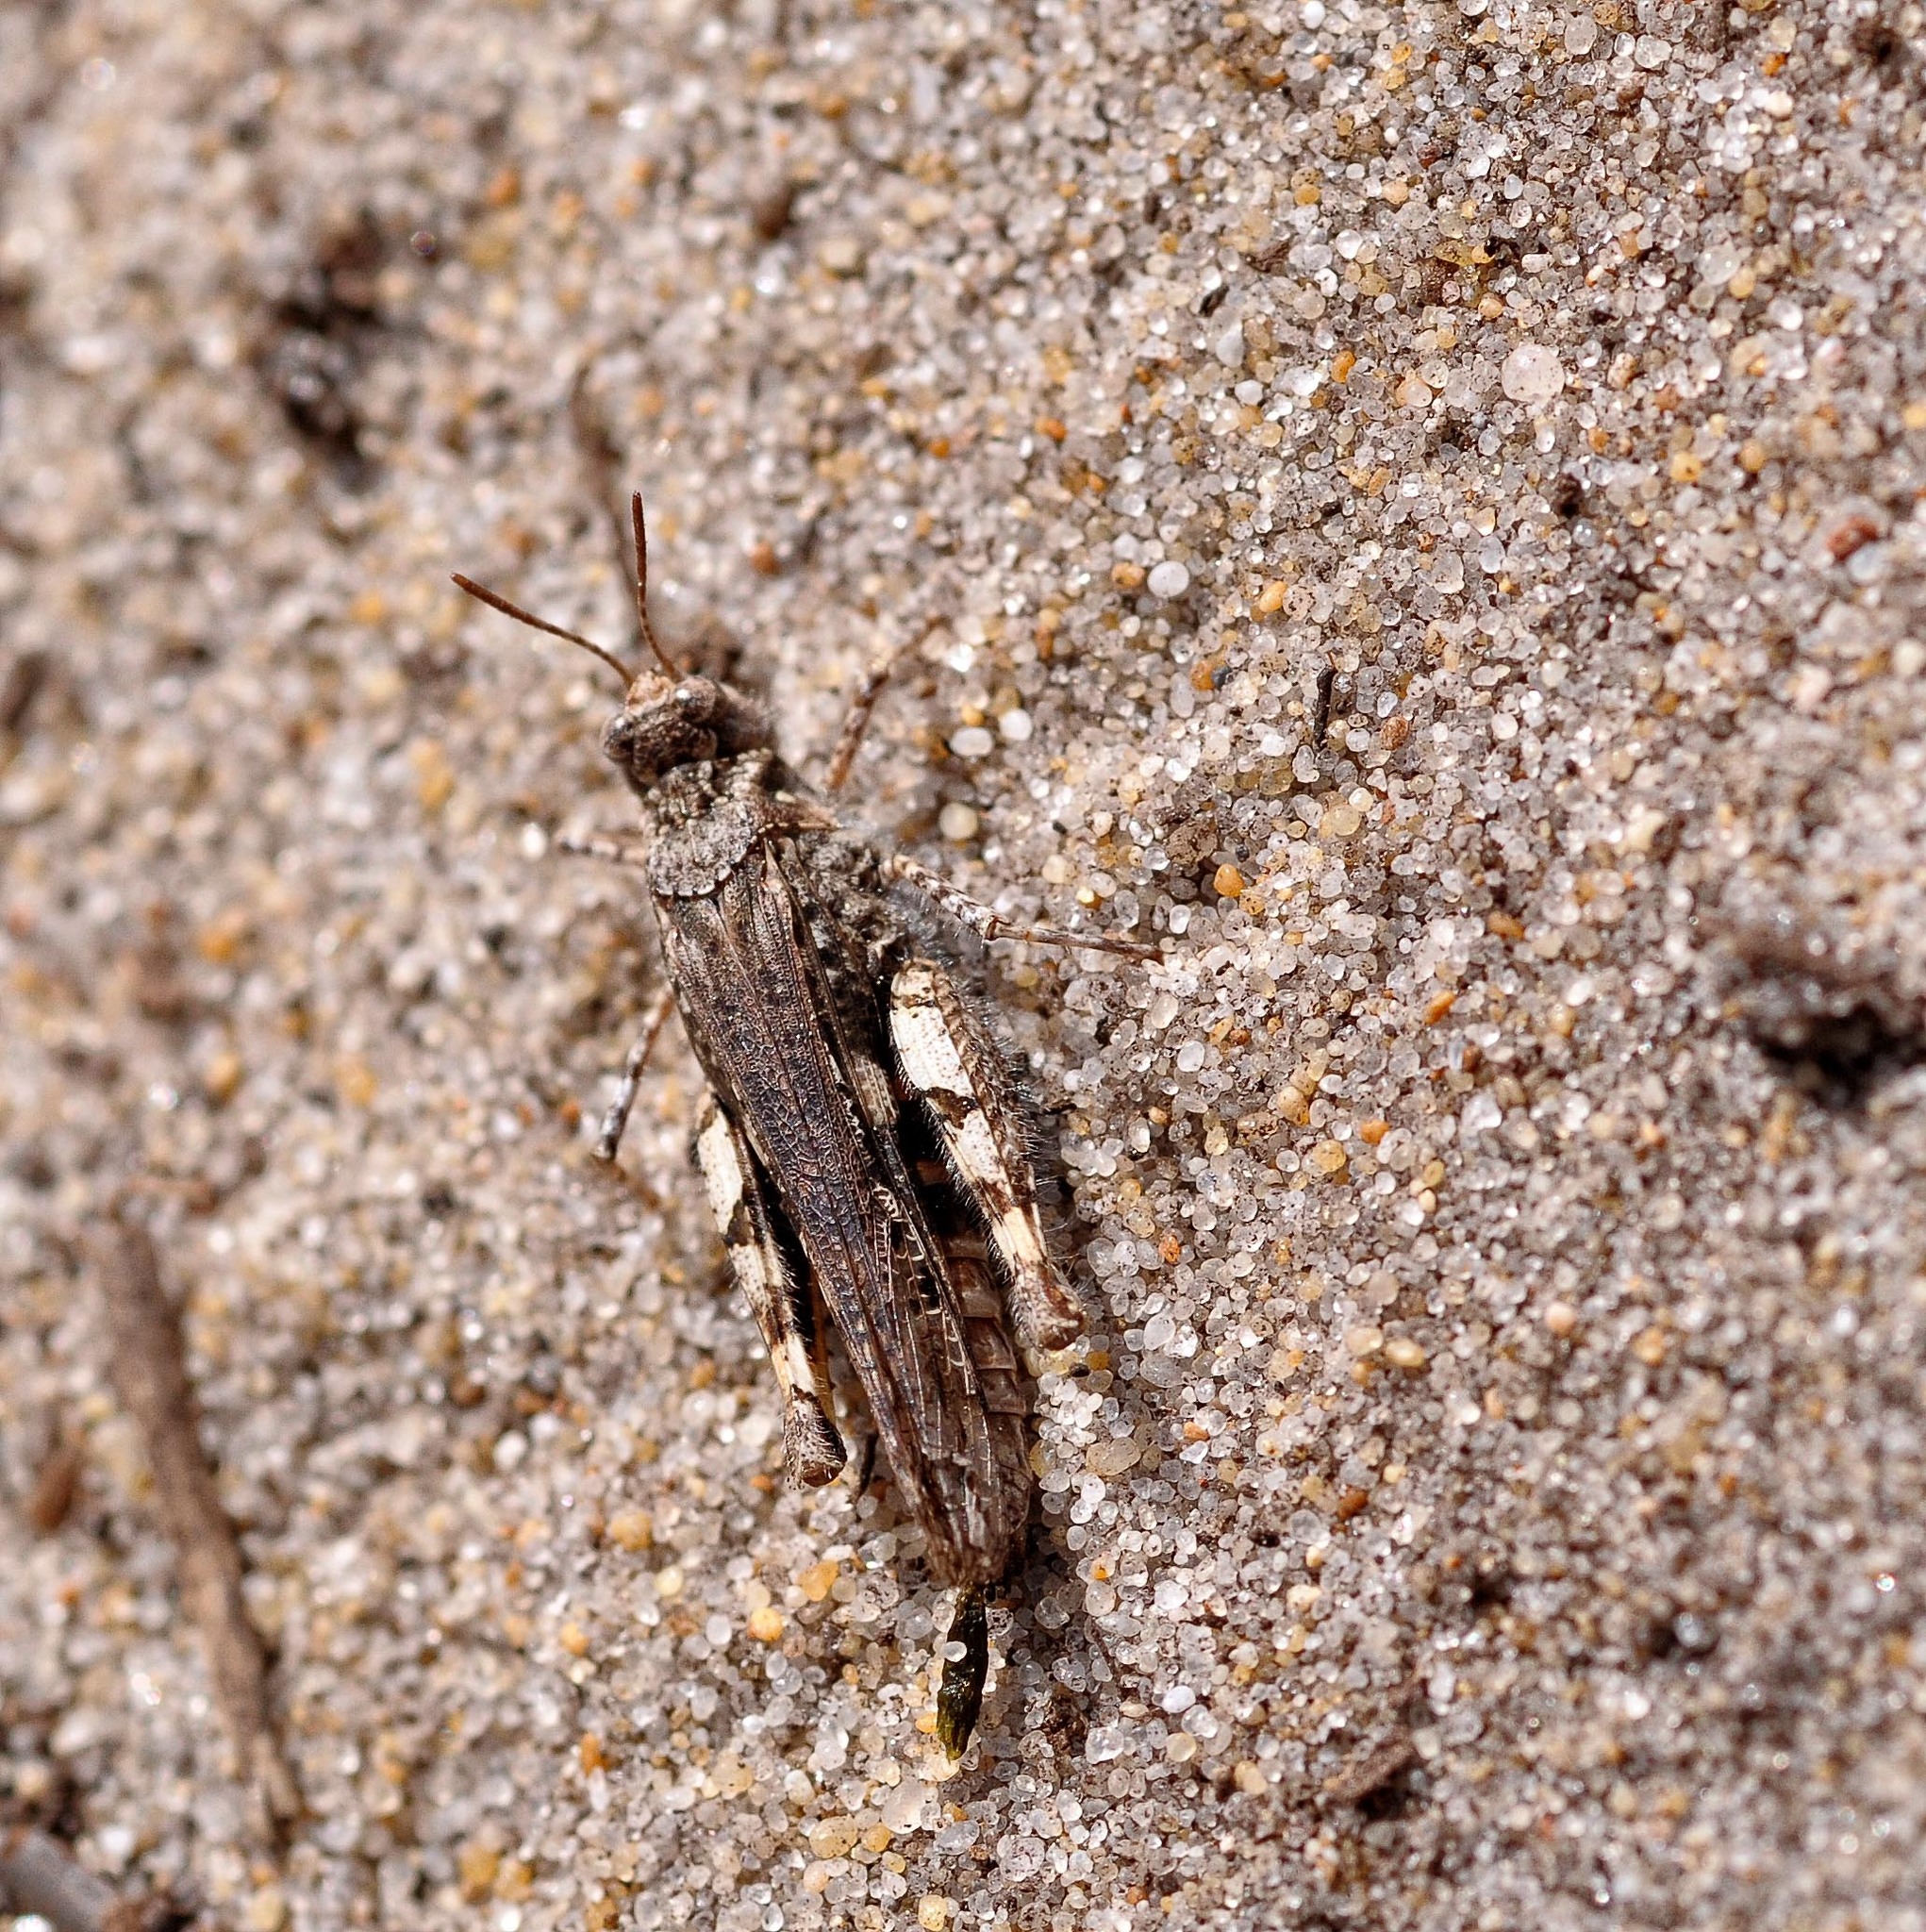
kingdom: Animalia
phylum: Arthropoda
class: Insecta
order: Orthoptera
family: Acrididae
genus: Acrotylus
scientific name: Acrotylus insubricus
